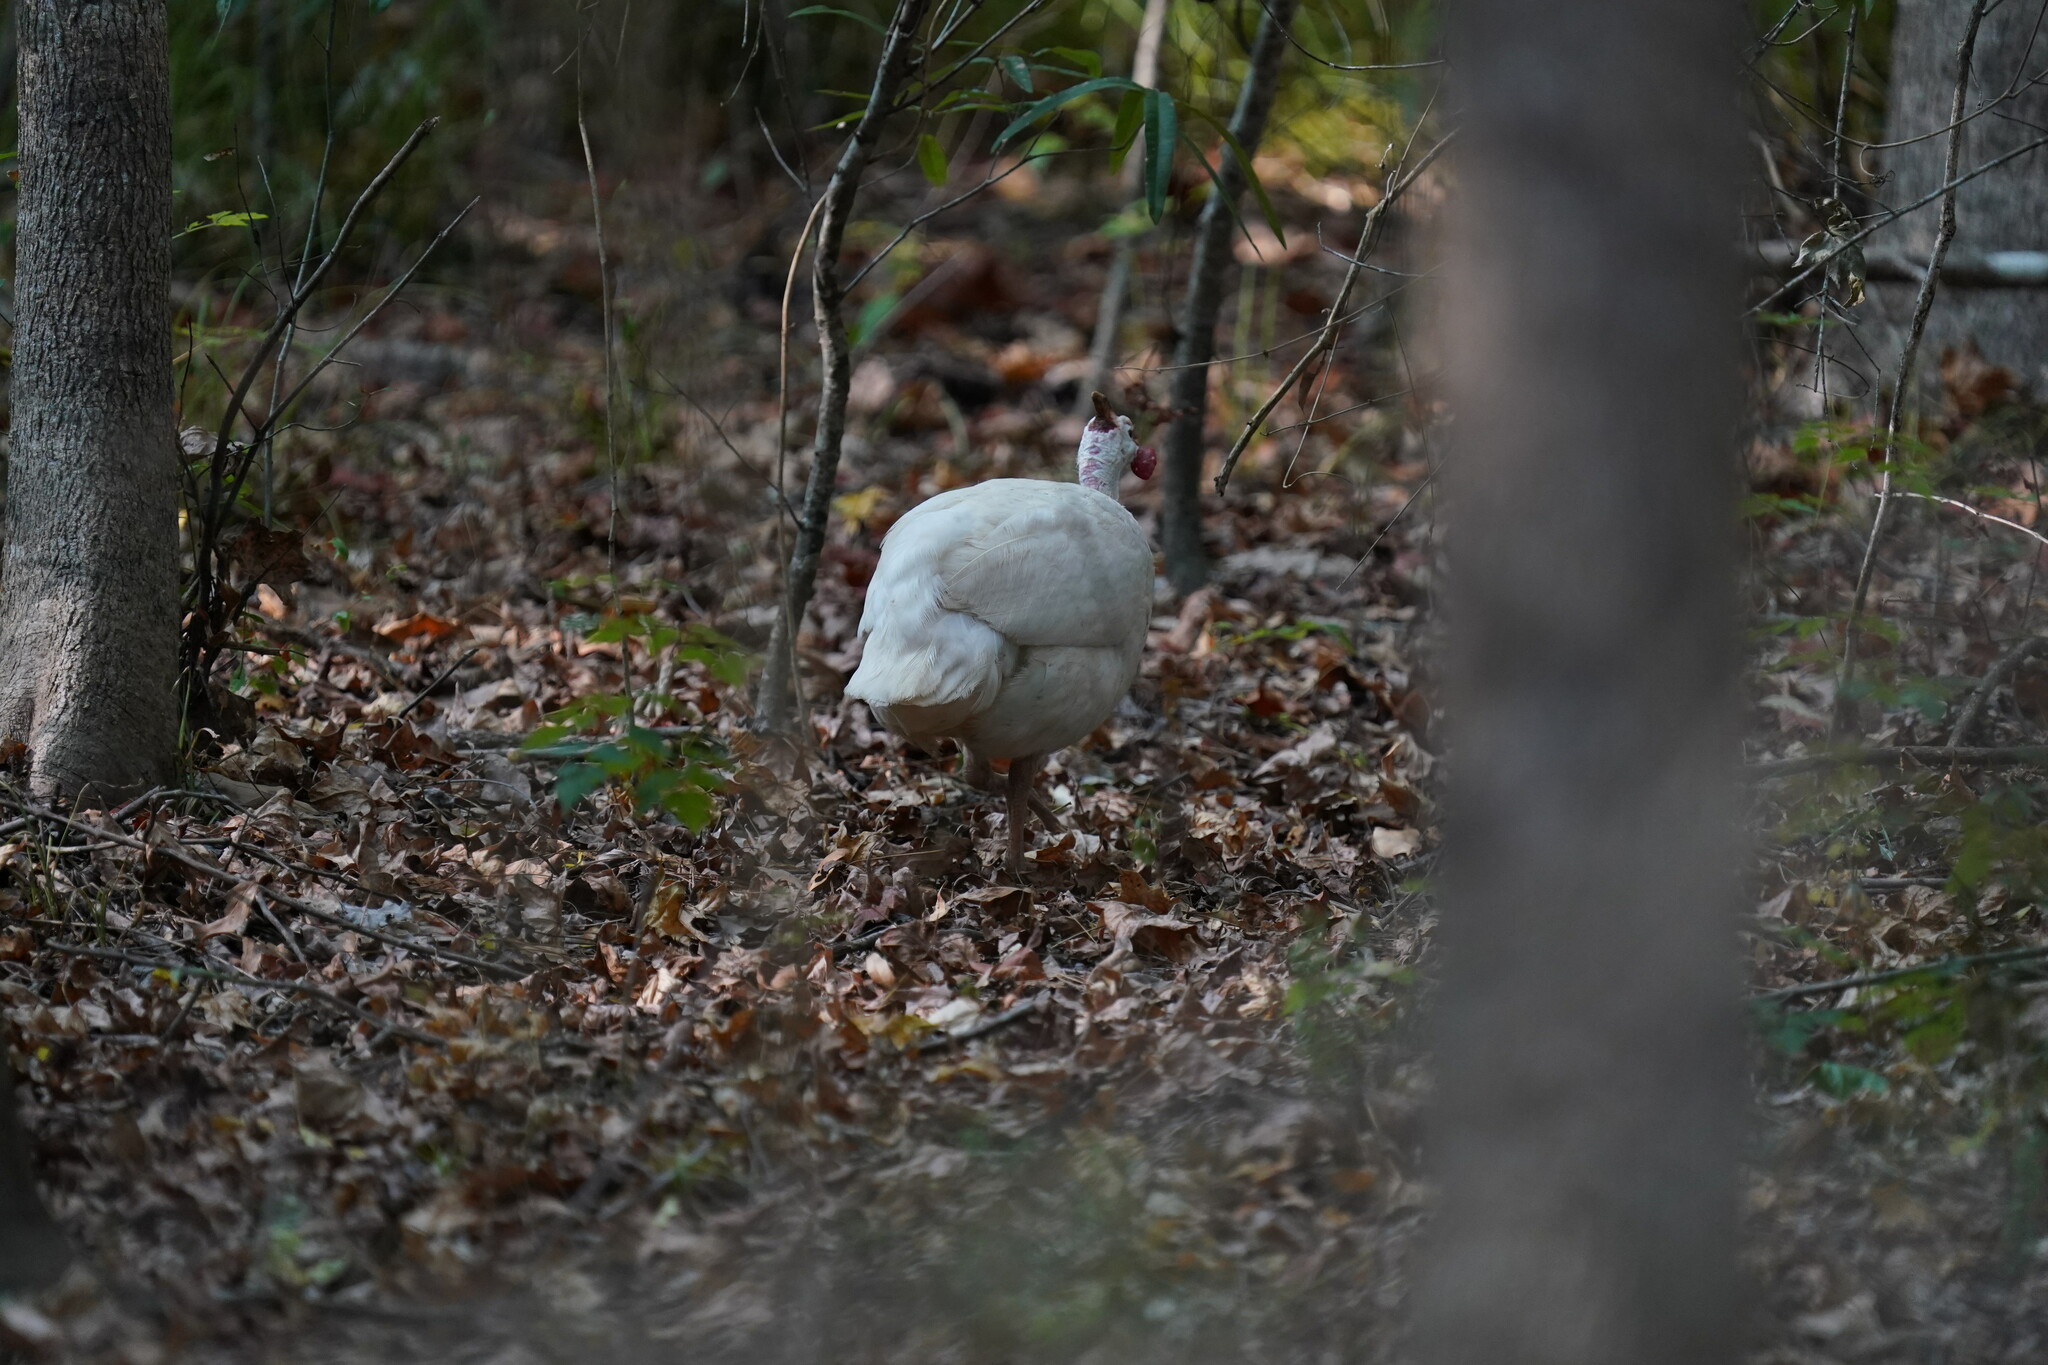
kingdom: Animalia
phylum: Chordata
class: Aves
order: Galliformes
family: Numididae
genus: Numida
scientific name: Numida meleagris
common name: Helmeted guineafowl
